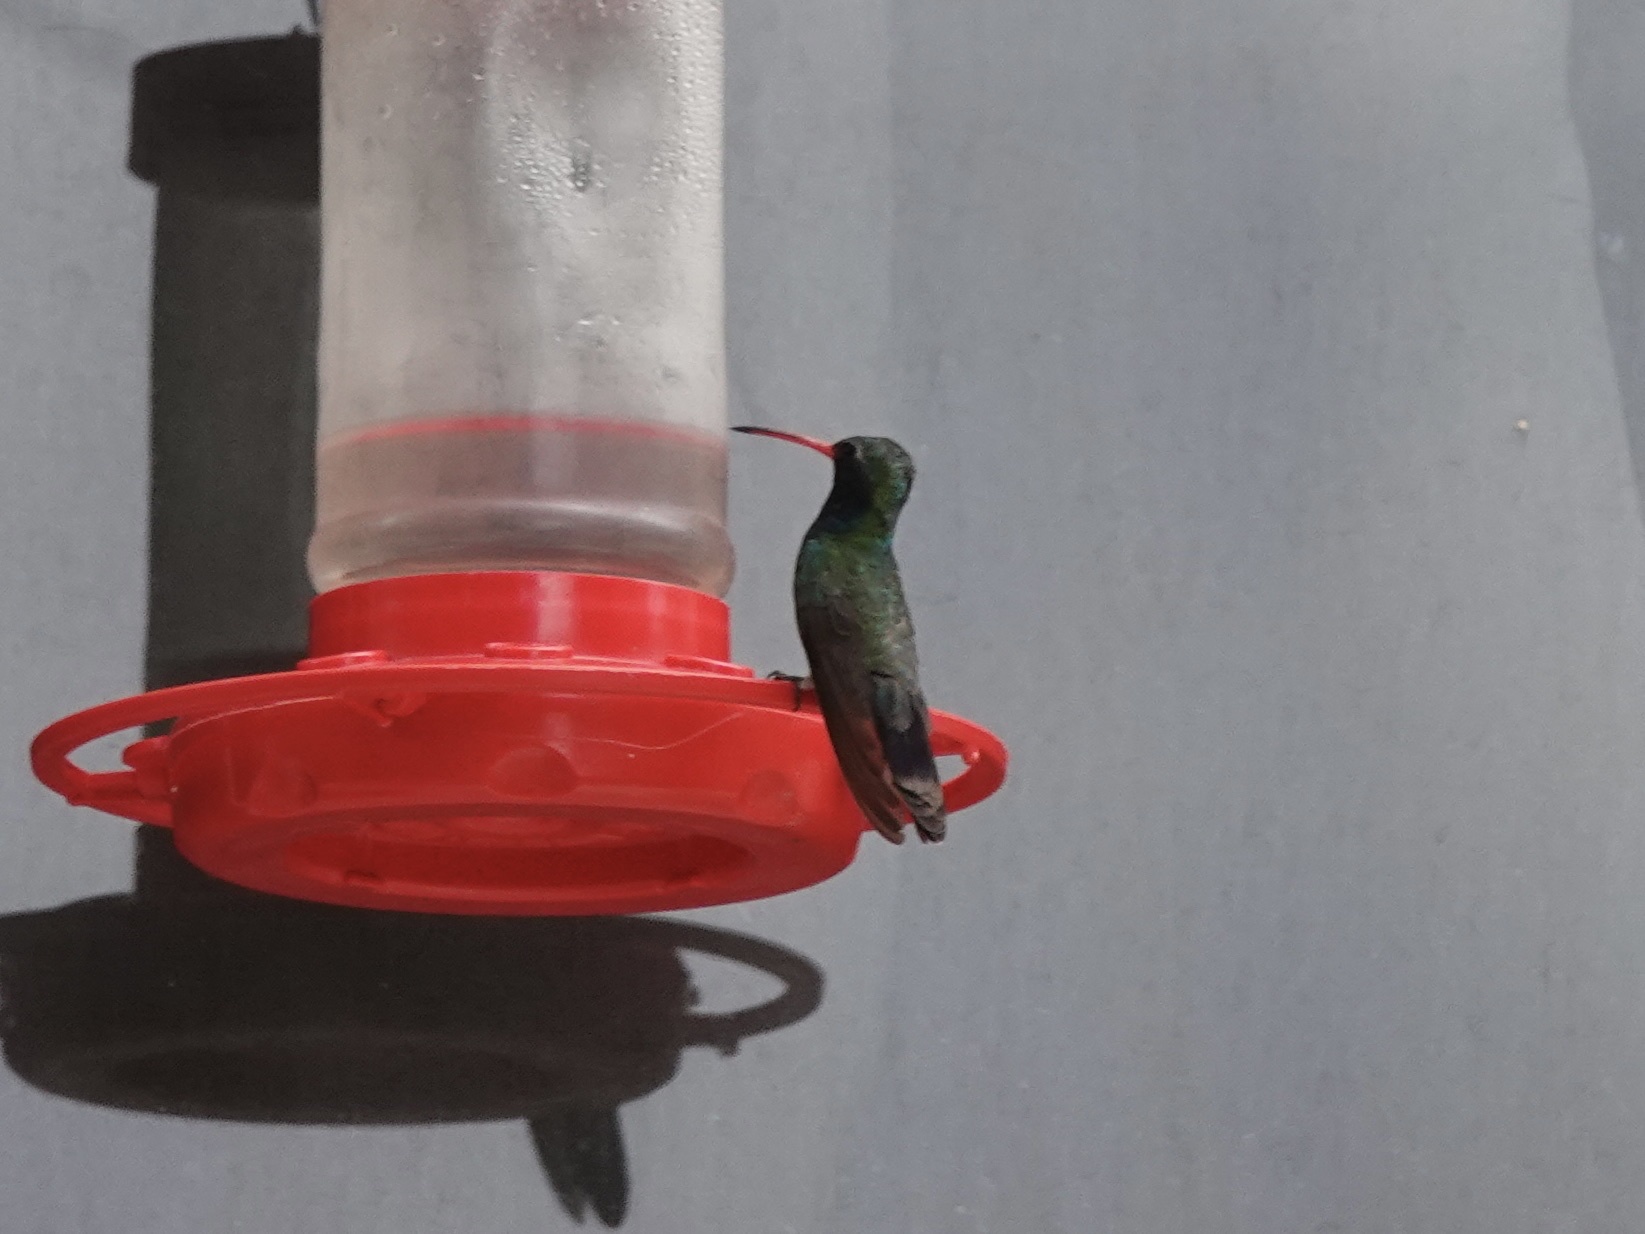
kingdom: Animalia
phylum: Chordata
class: Aves
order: Apodiformes
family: Trochilidae
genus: Cynanthus
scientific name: Cynanthus latirostris
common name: Broad-billed hummingbird
